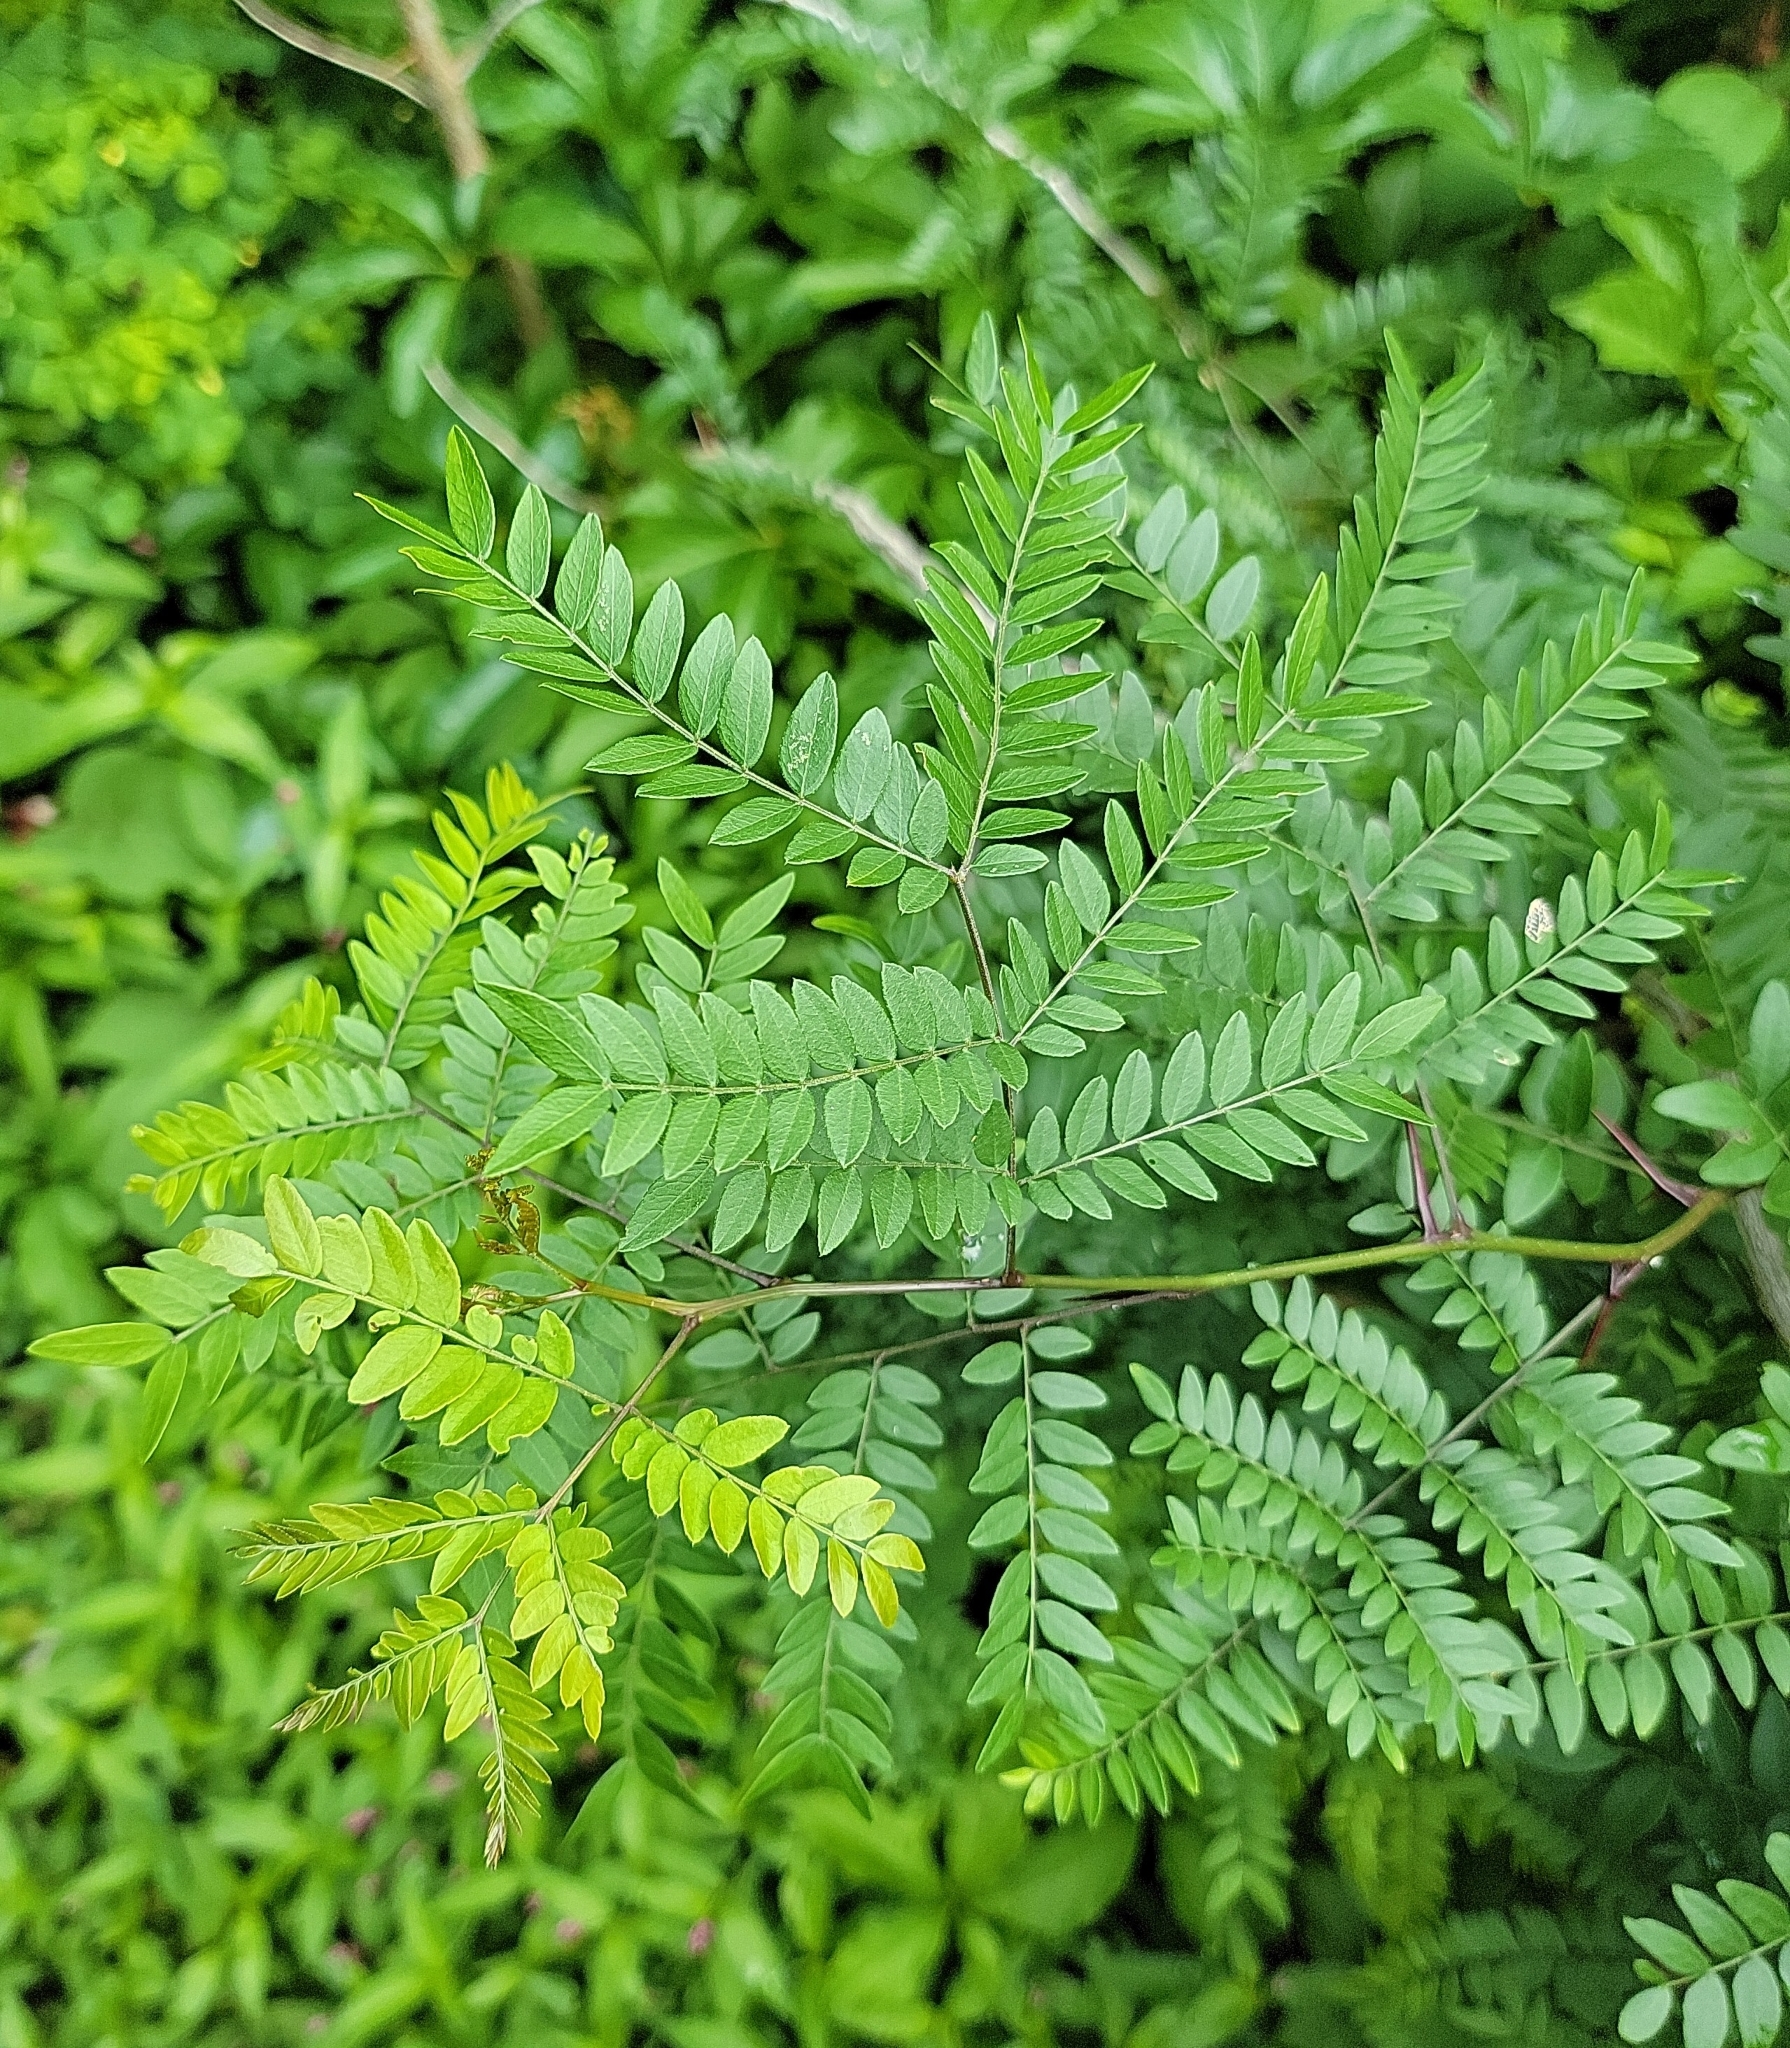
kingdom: Plantae
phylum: Tracheophyta
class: Magnoliopsida
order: Fabales
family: Fabaceae
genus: Gleditsia
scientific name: Gleditsia triacanthos
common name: Common honeylocust
